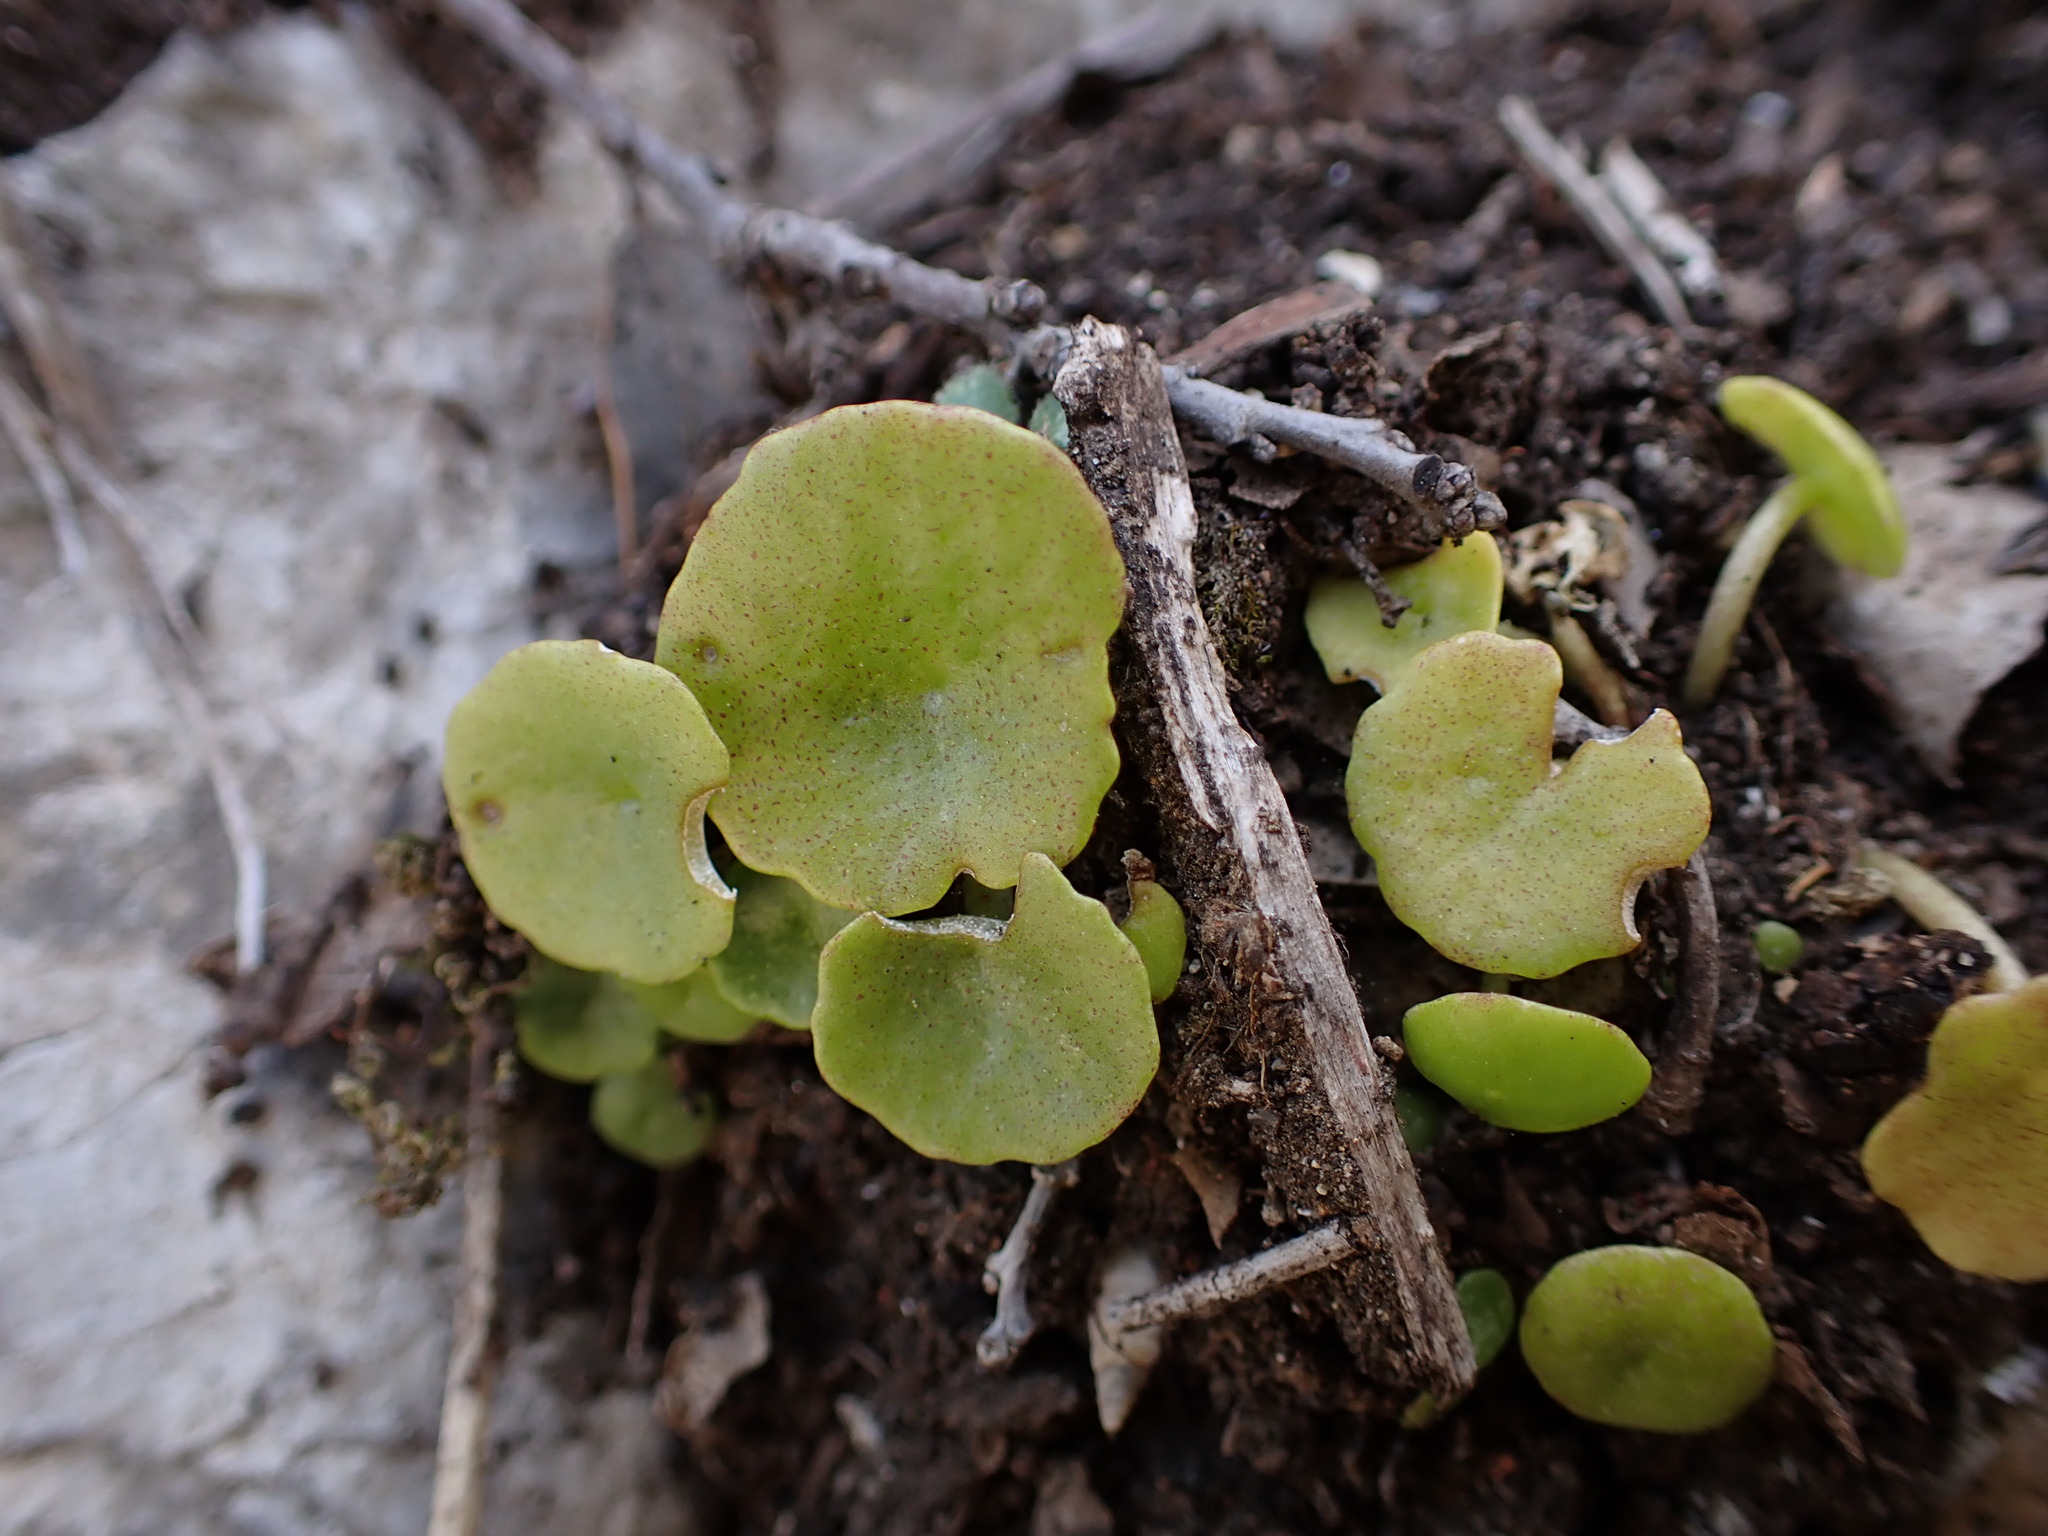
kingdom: Plantae
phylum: Tracheophyta
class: Magnoliopsida
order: Saxifragales
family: Crassulaceae
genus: Umbilicus
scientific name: Umbilicus rupestris
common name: Navelwort
